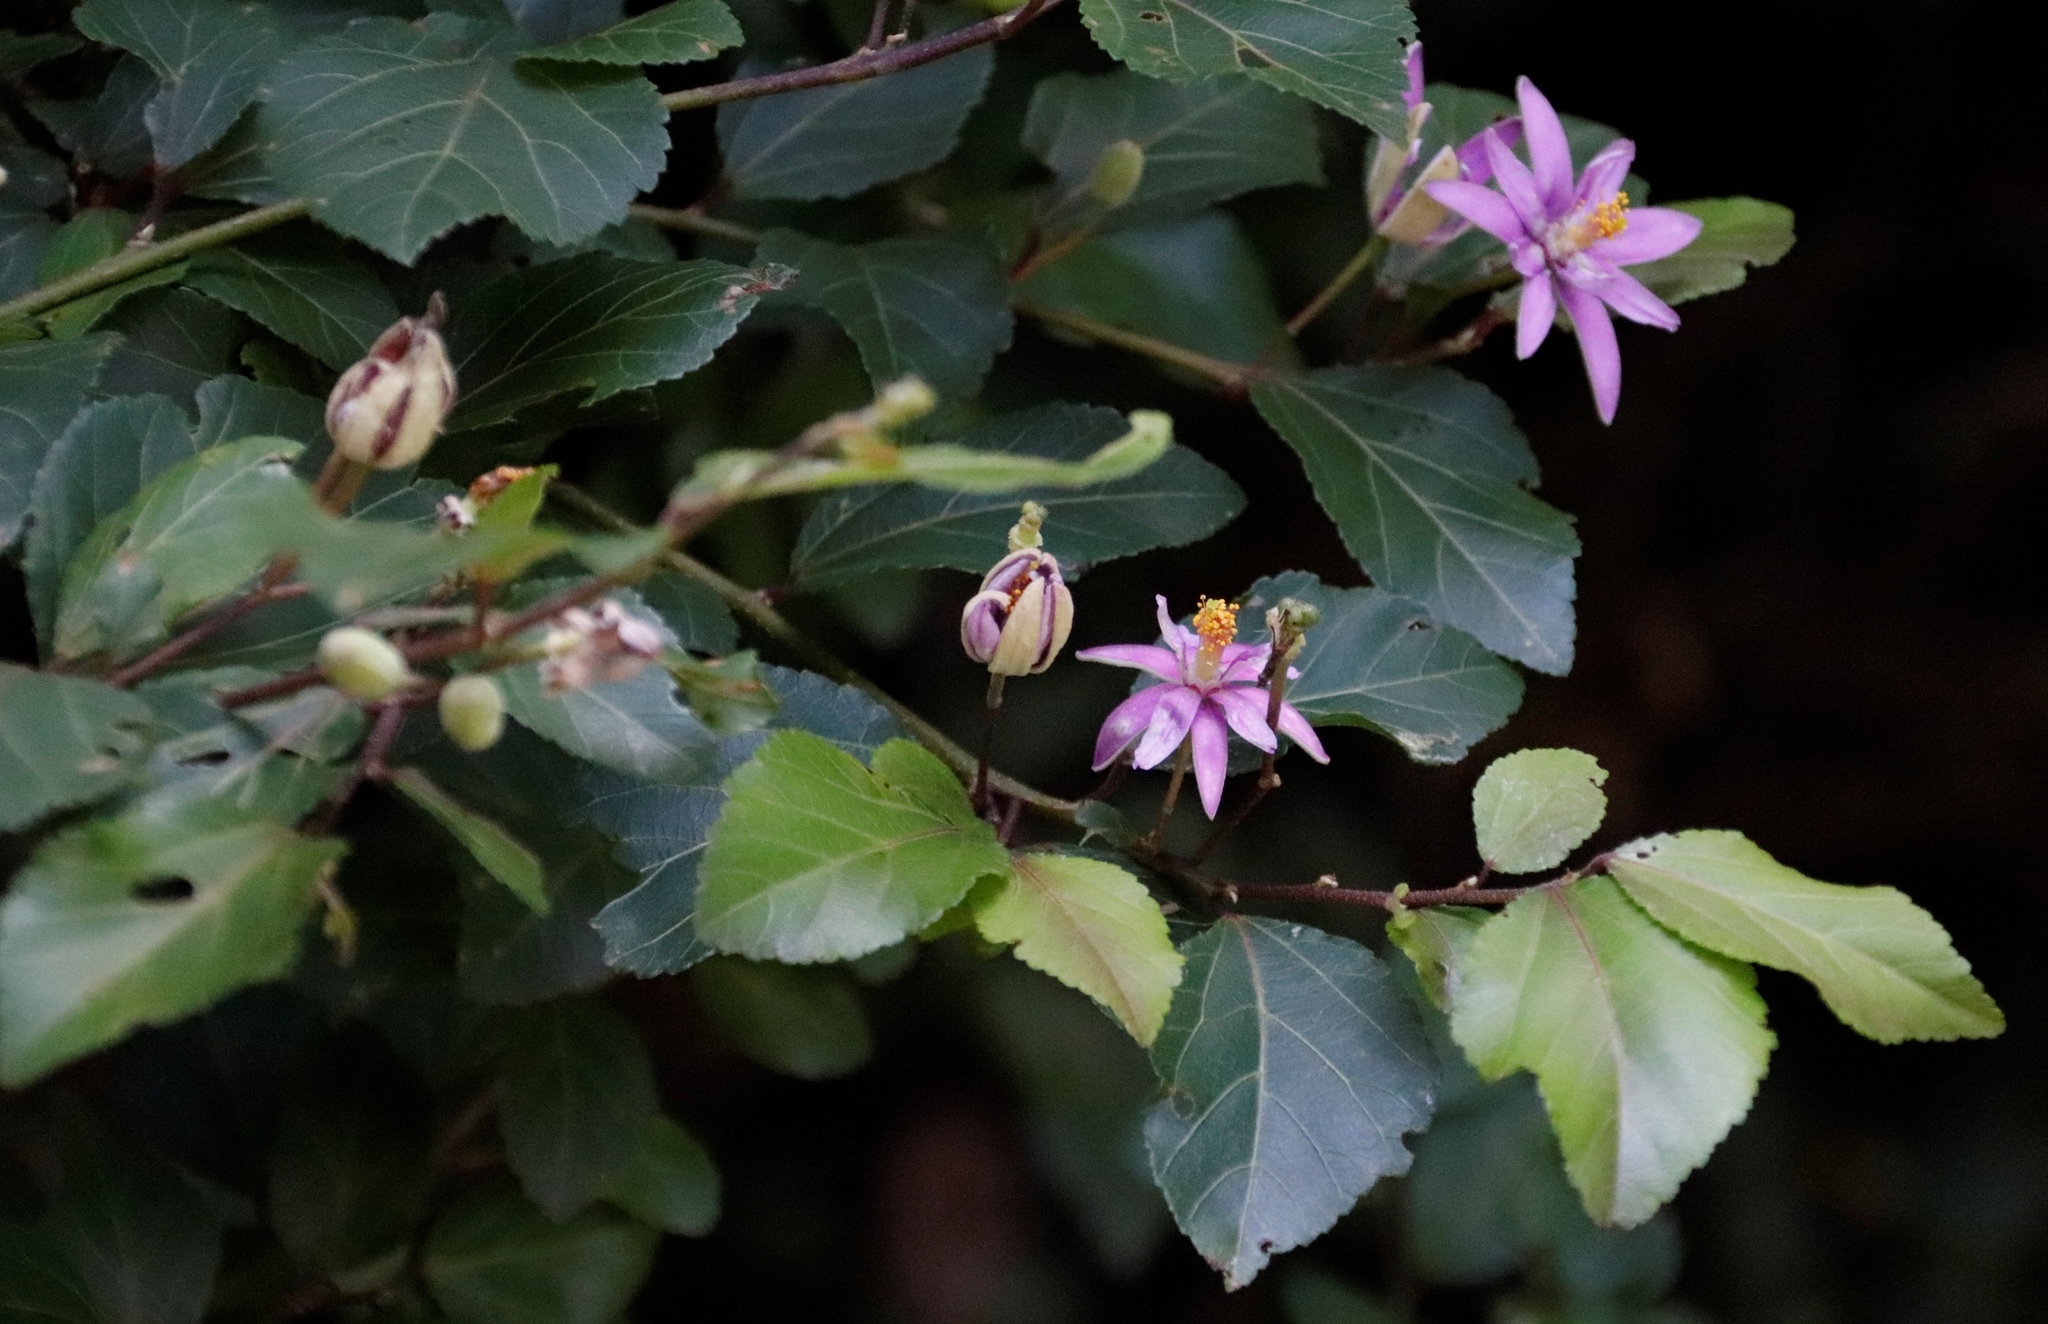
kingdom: Plantae
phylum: Tracheophyta
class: Magnoliopsida
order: Malvales
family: Malvaceae
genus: Grewia
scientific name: Grewia occidentalis
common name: Crossberry
